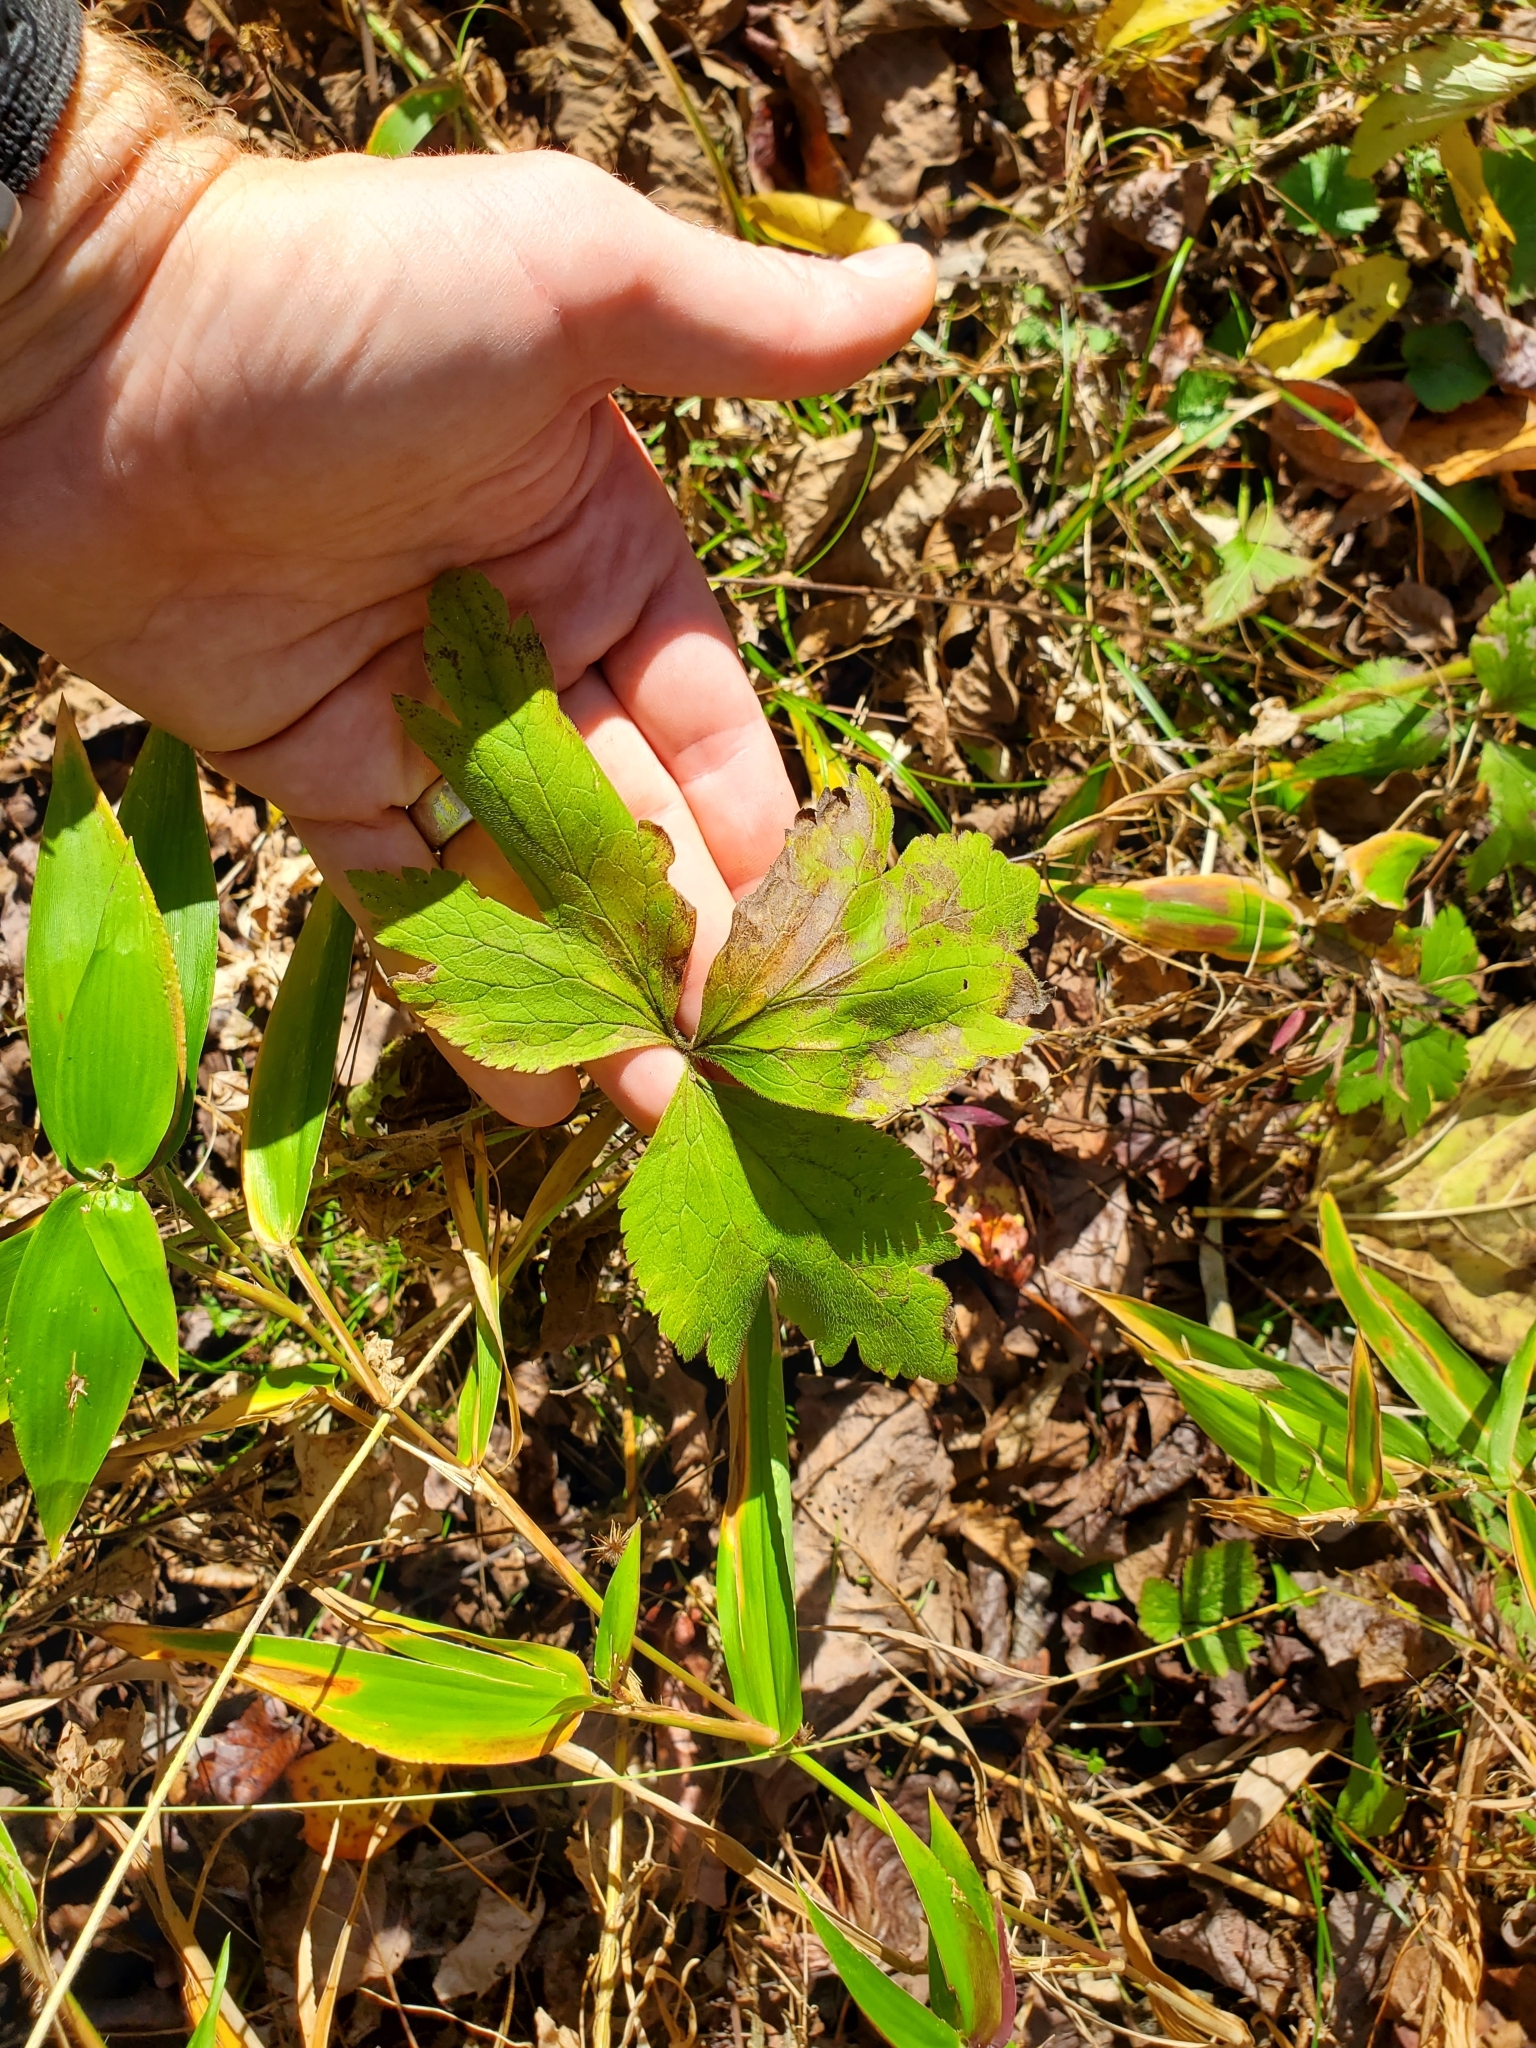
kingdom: Plantae
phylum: Tracheophyta
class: Magnoliopsida
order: Asterales
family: Asteraceae
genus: Rudbeckia
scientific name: Rudbeckia laciniata
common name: Coneflower
